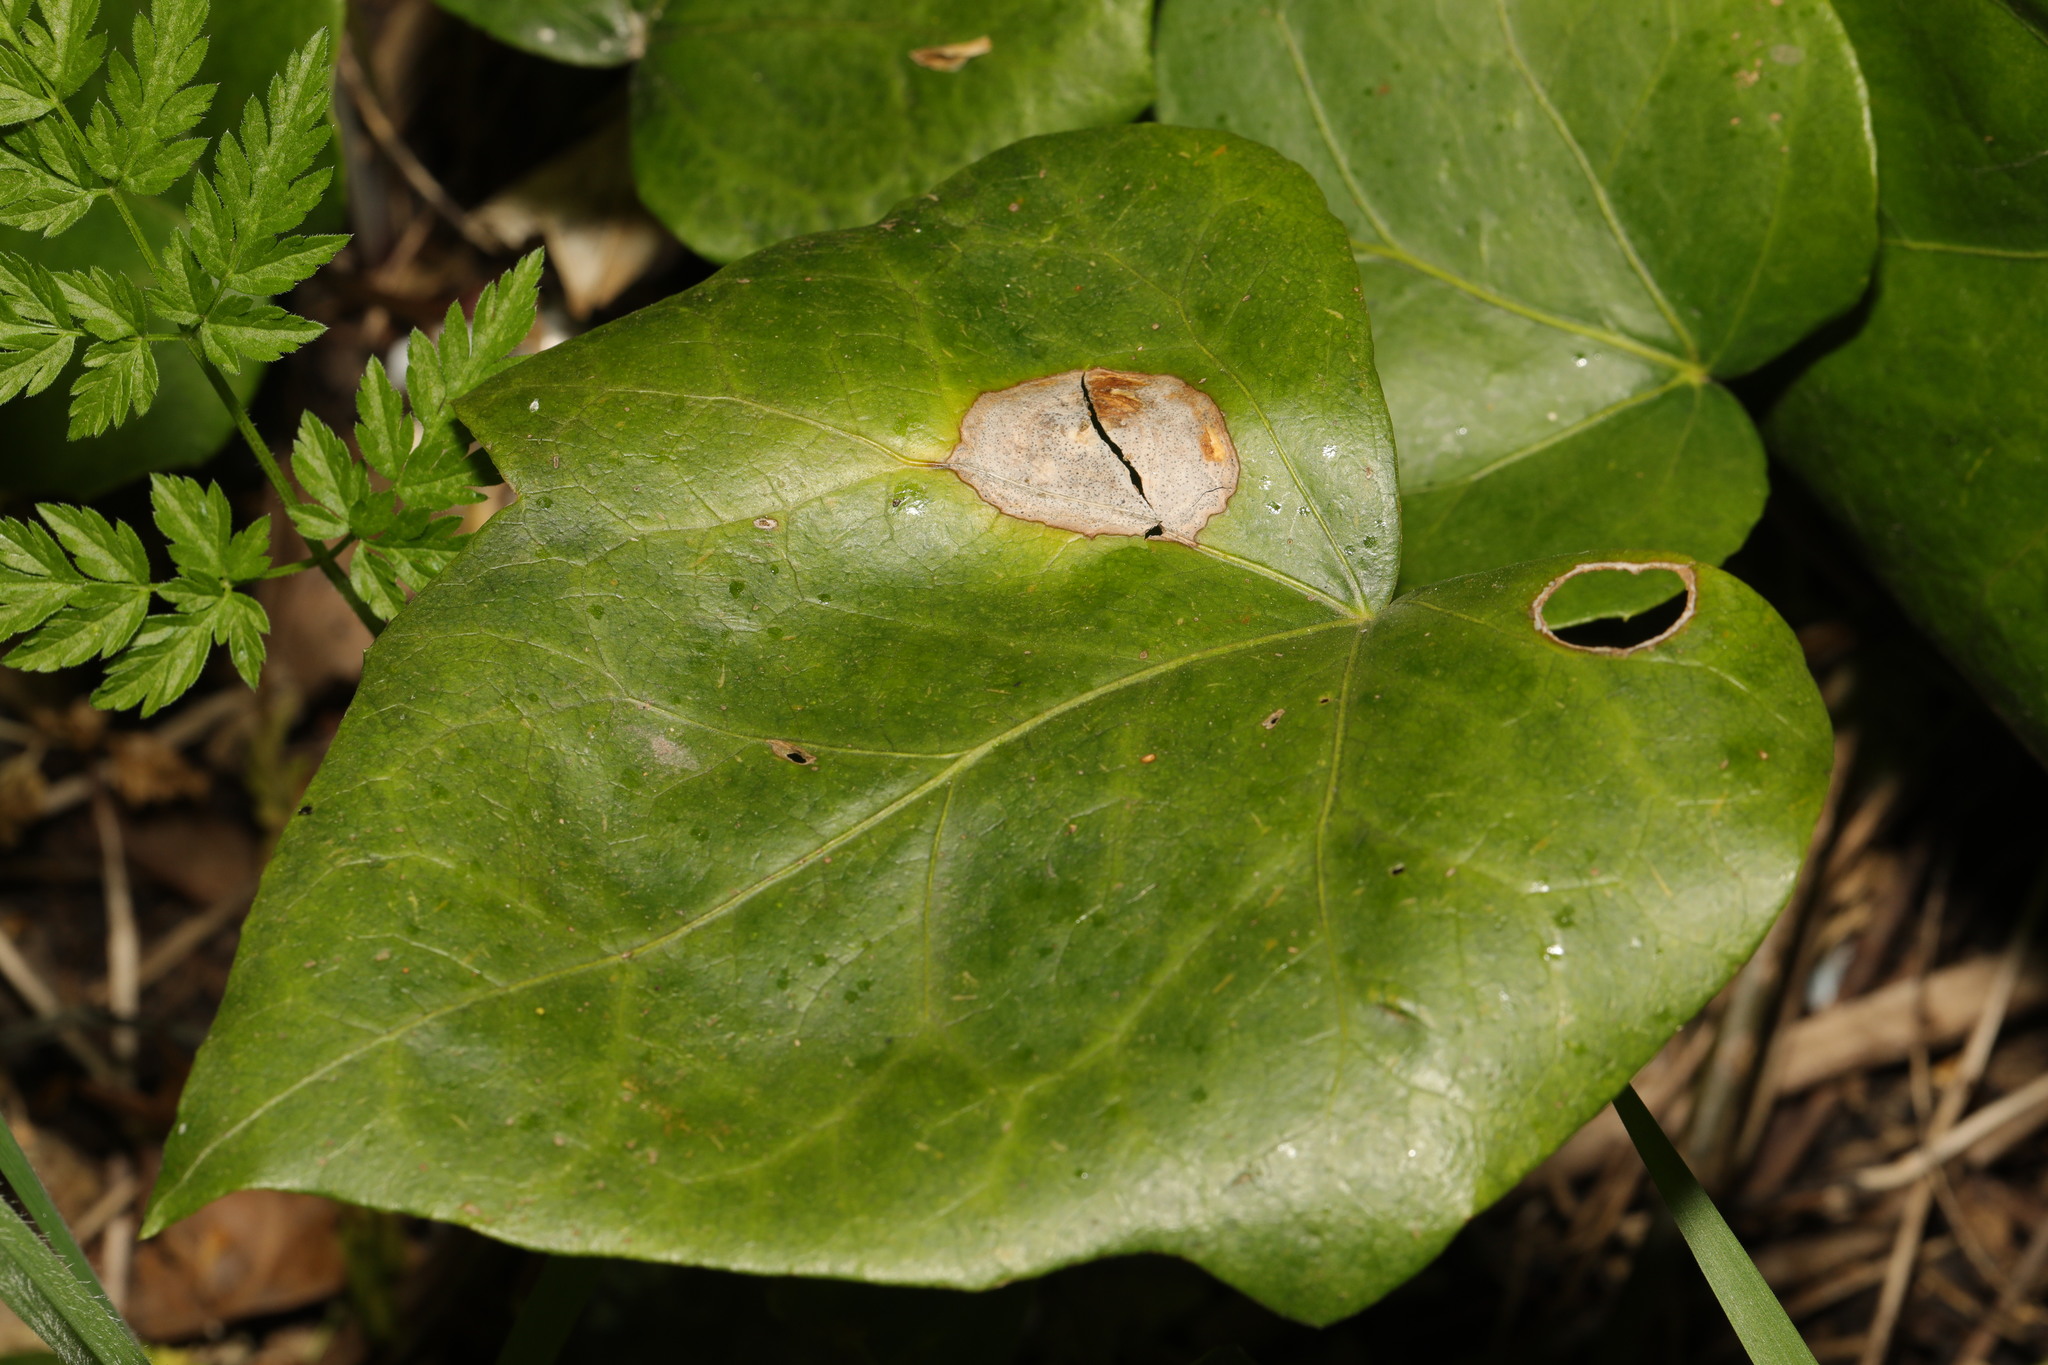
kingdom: Fungi
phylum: Ascomycota
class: Dothideomycetes
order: Pleosporales
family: Didymellaceae
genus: Boeremia
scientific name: Boeremia hedericola
